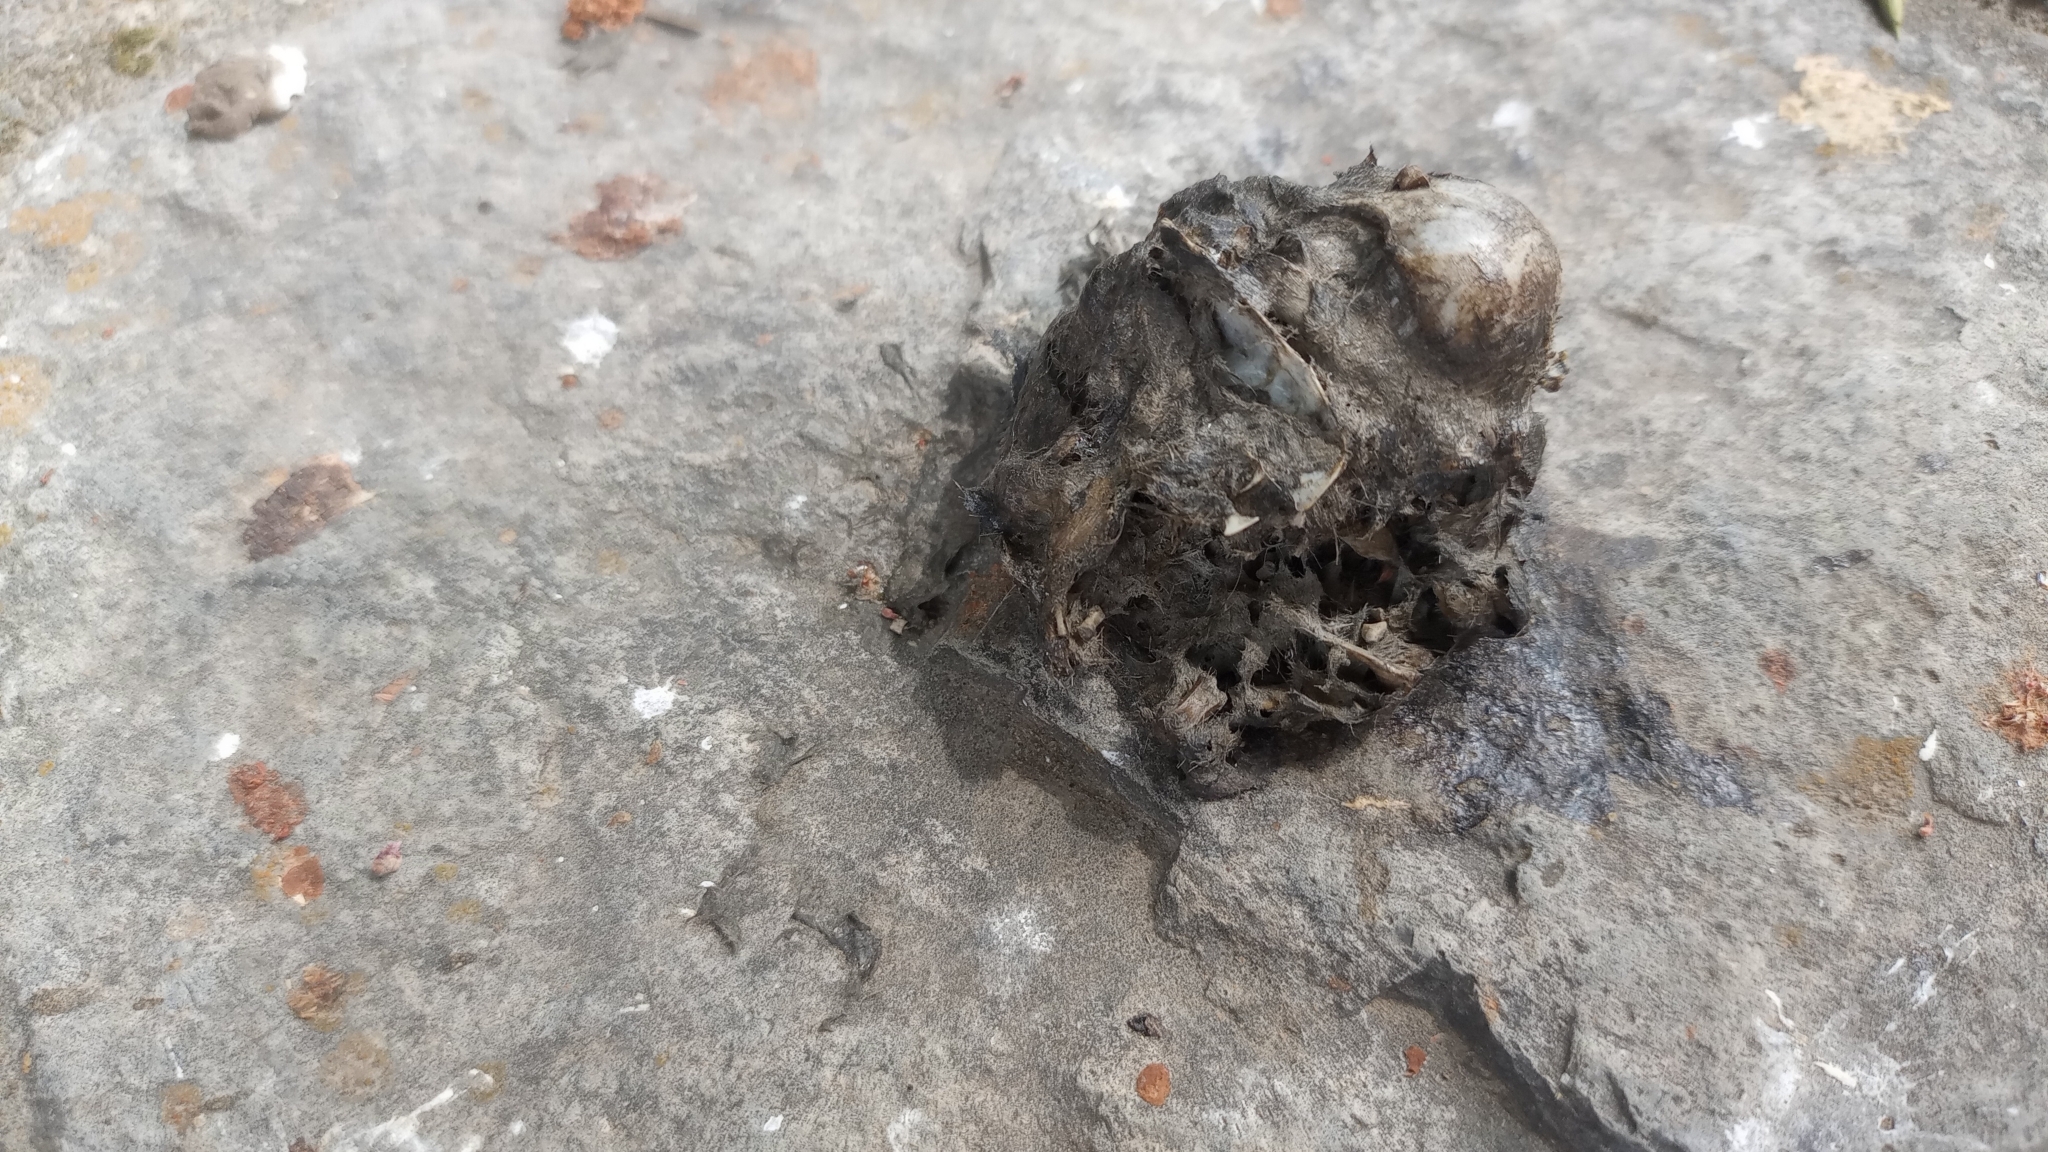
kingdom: Animalia
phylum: Chordata
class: Aves
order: Strigiformes
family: Tytonidae
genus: Tyto
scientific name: Tyto alba
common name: Barn owl
